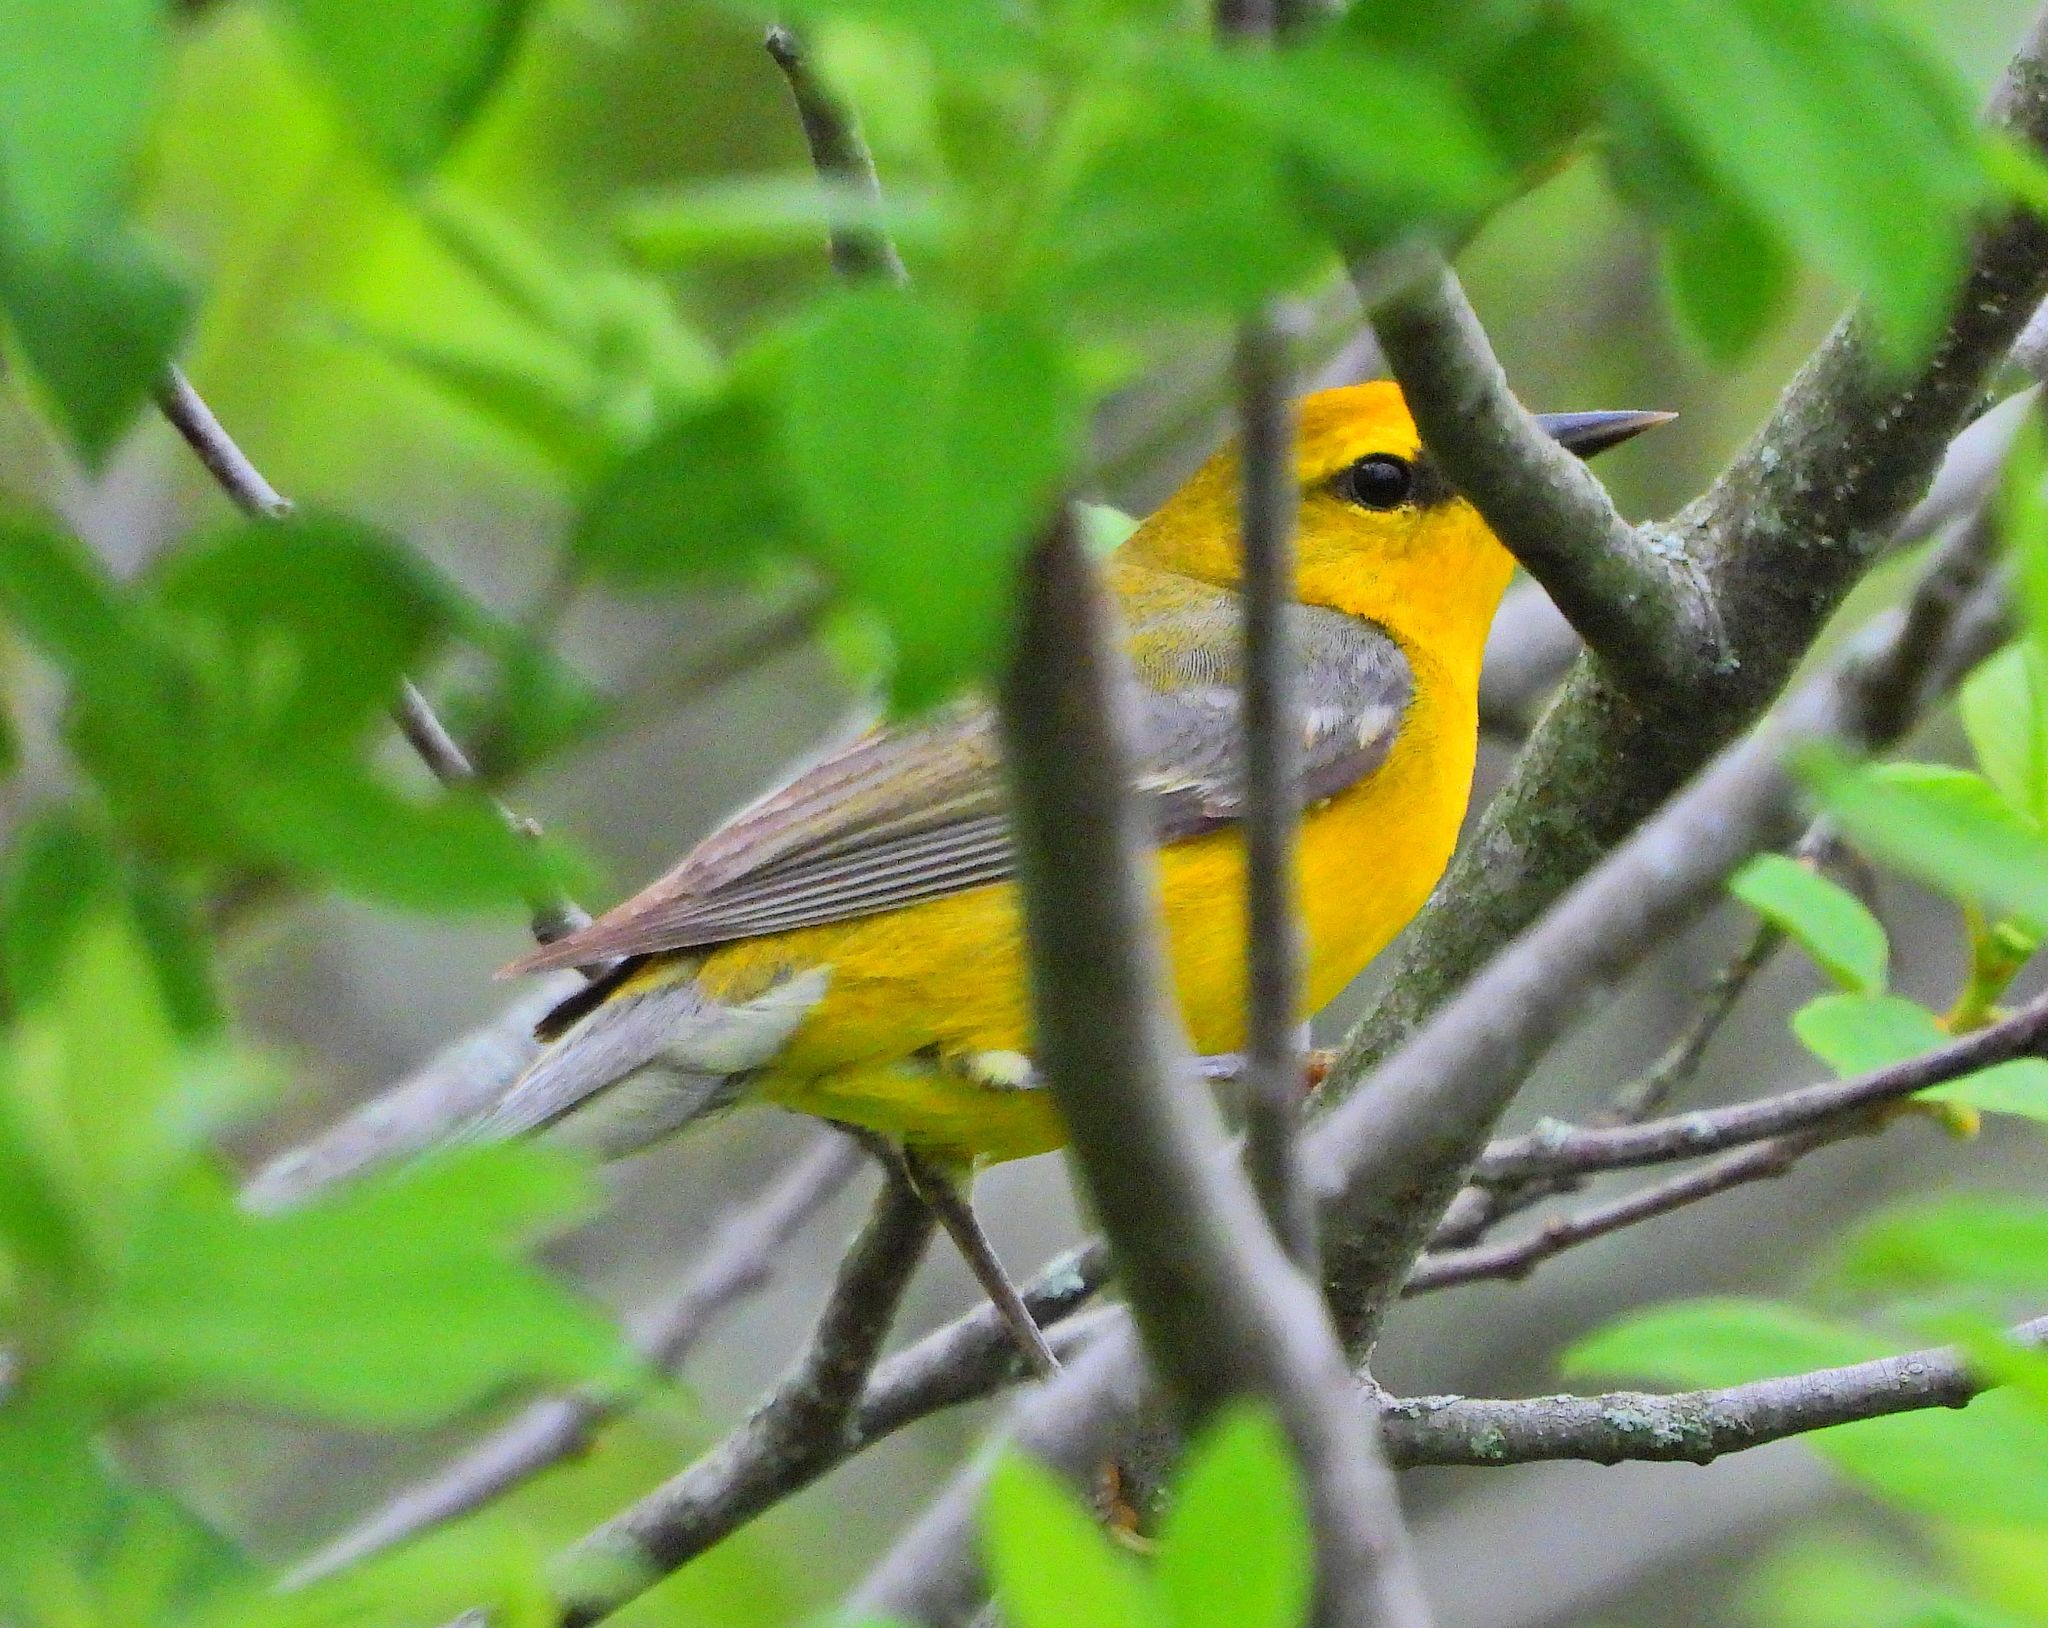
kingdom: Animalia
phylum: Chordata
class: Aves
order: Passeriformes
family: Parulidae
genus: Vermivora
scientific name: Vermivora cyanoptera
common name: Blue-winged warbler
